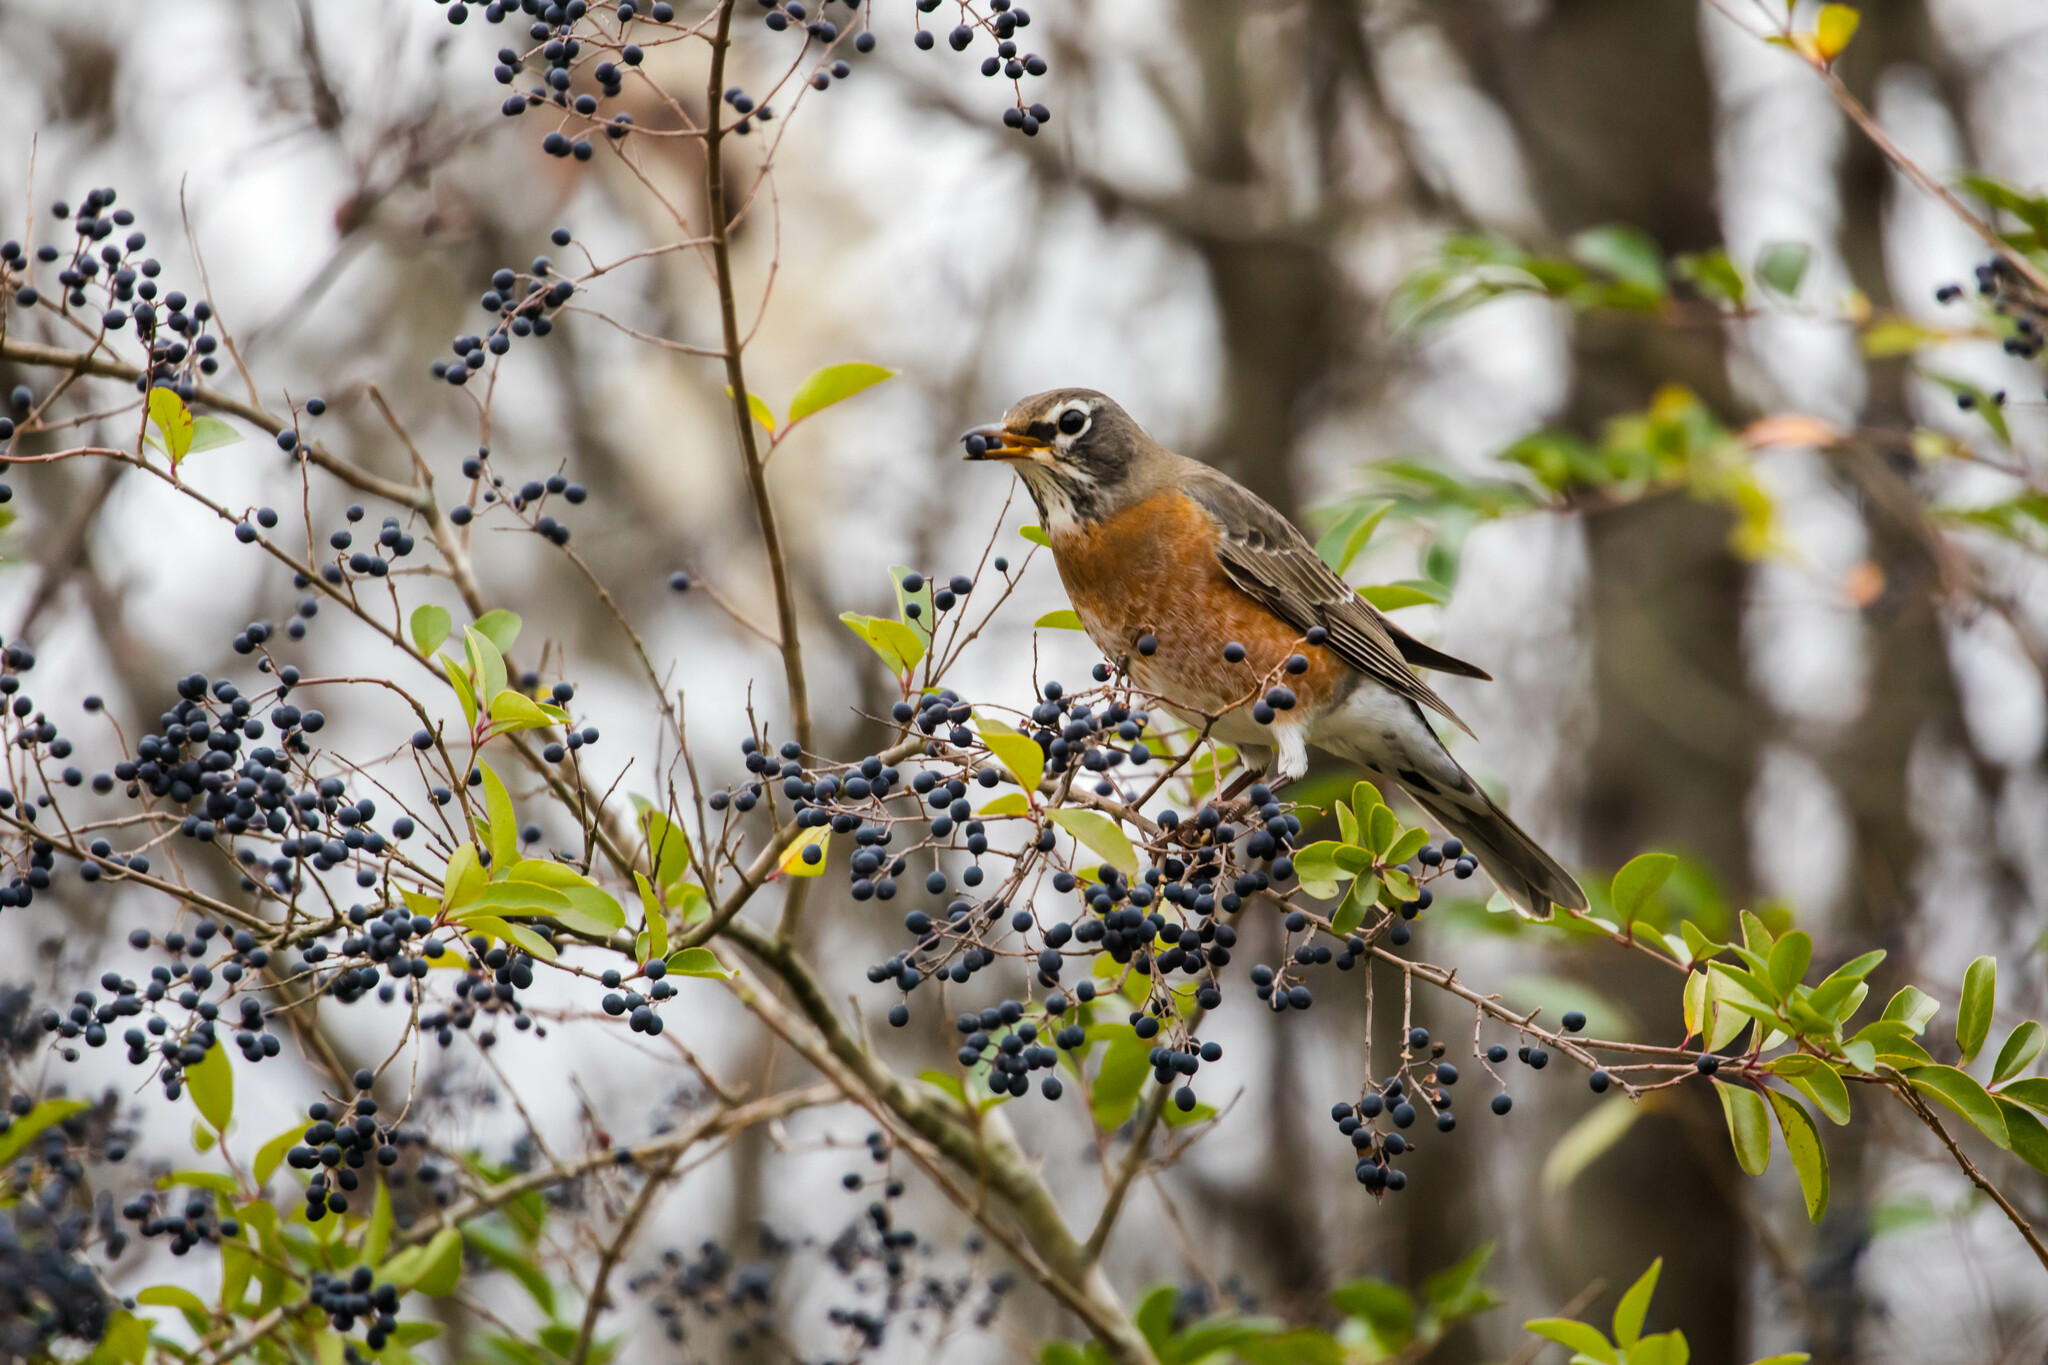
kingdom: Animalia
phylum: Chordata
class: Aves
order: Passeriformes
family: Turdidae
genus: Turdus
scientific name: Turdus migratorius
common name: American robin
